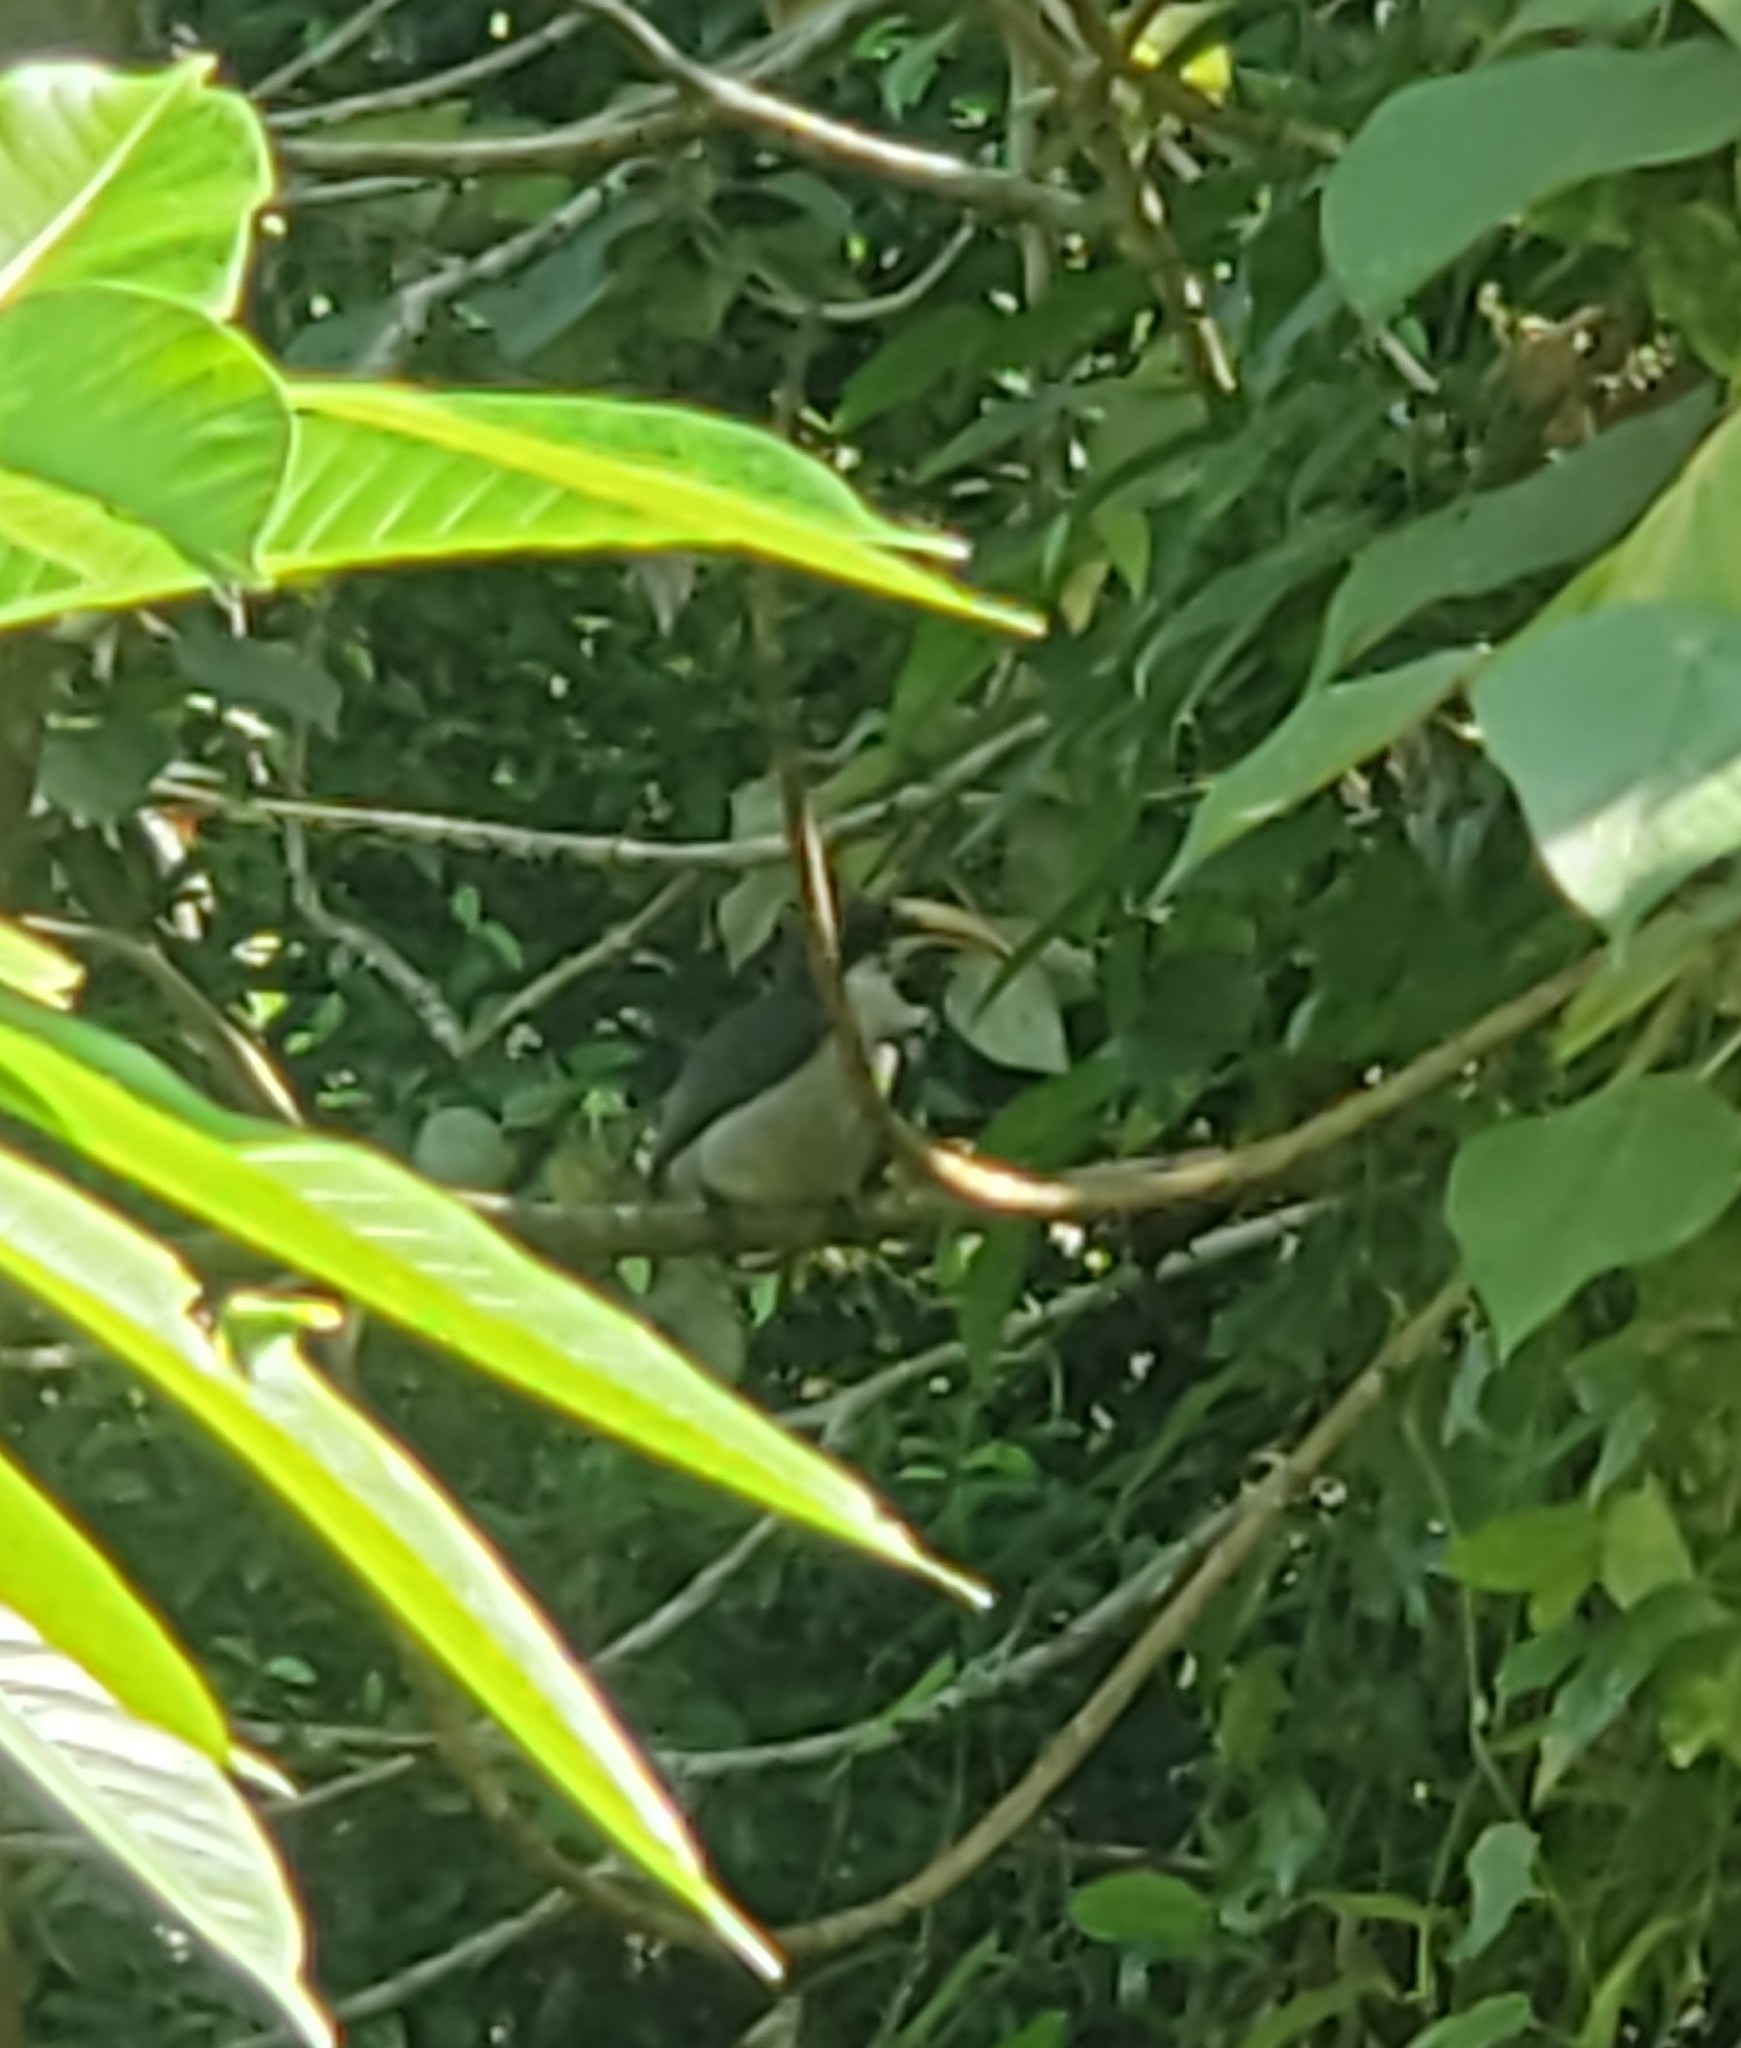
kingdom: Animalia
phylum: Chordata
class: Aves
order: Bucerotiformes
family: Bucerotidae
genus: Ocyceros
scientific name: Ocyceros gingalensis
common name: Sri lanka grey hornbill
